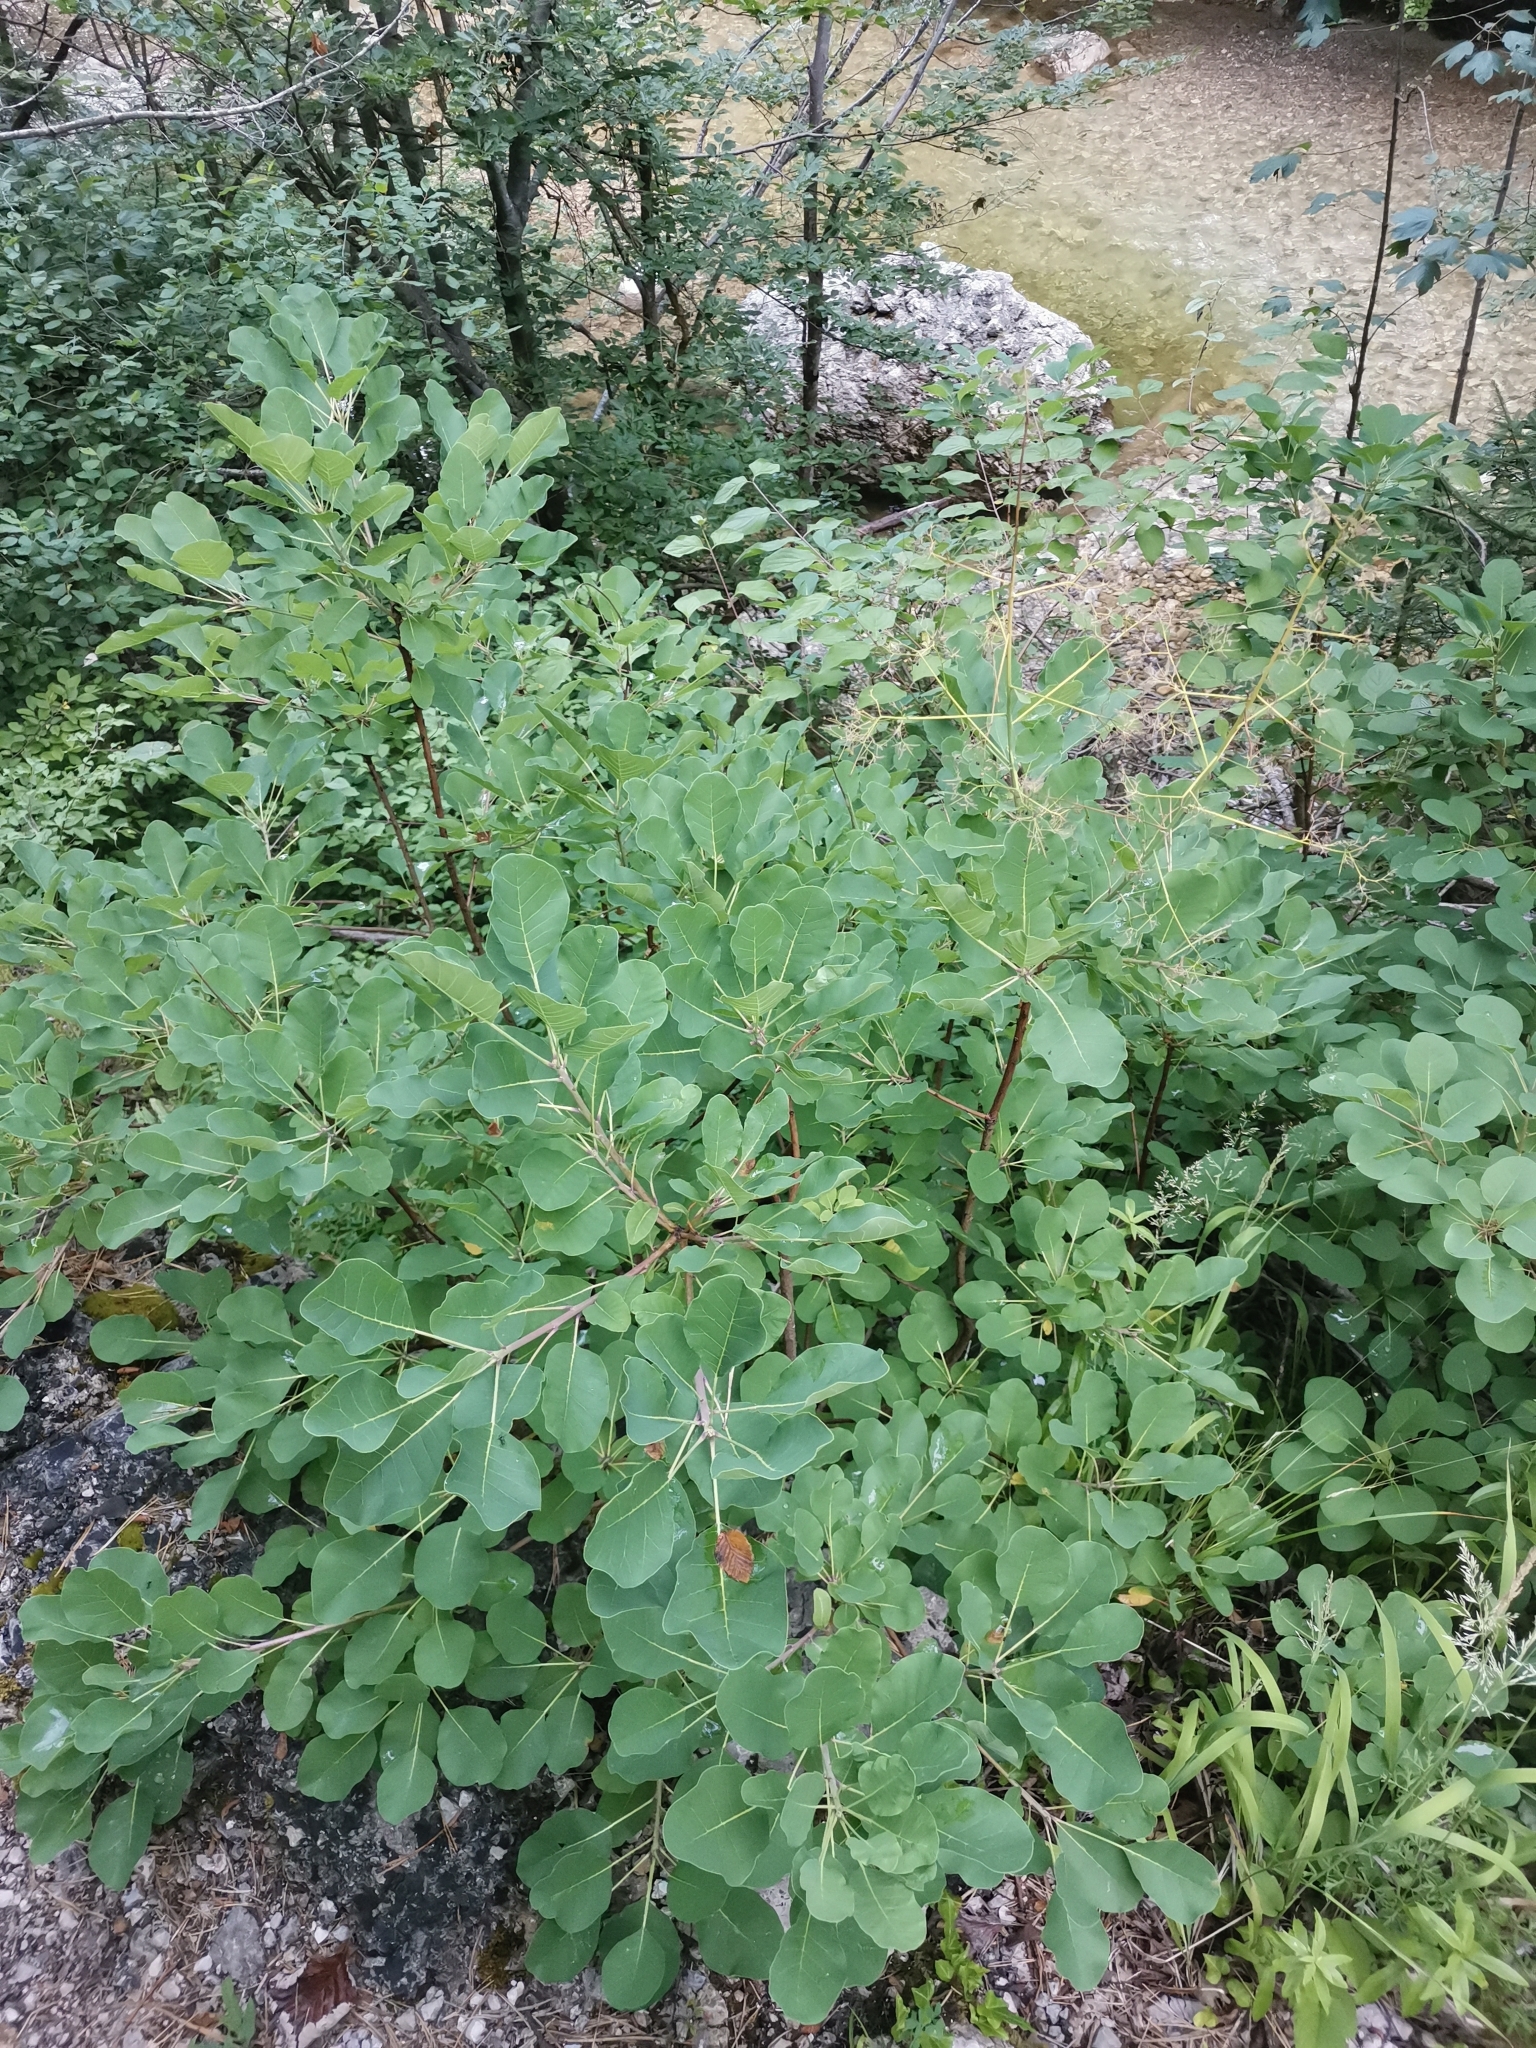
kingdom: Plantae
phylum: Tracheophyta
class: Magnoliopsida
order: Sapindales
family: Anacardiaceae
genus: Cotinus
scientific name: Cotinus coggygria
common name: Smoke-tree
